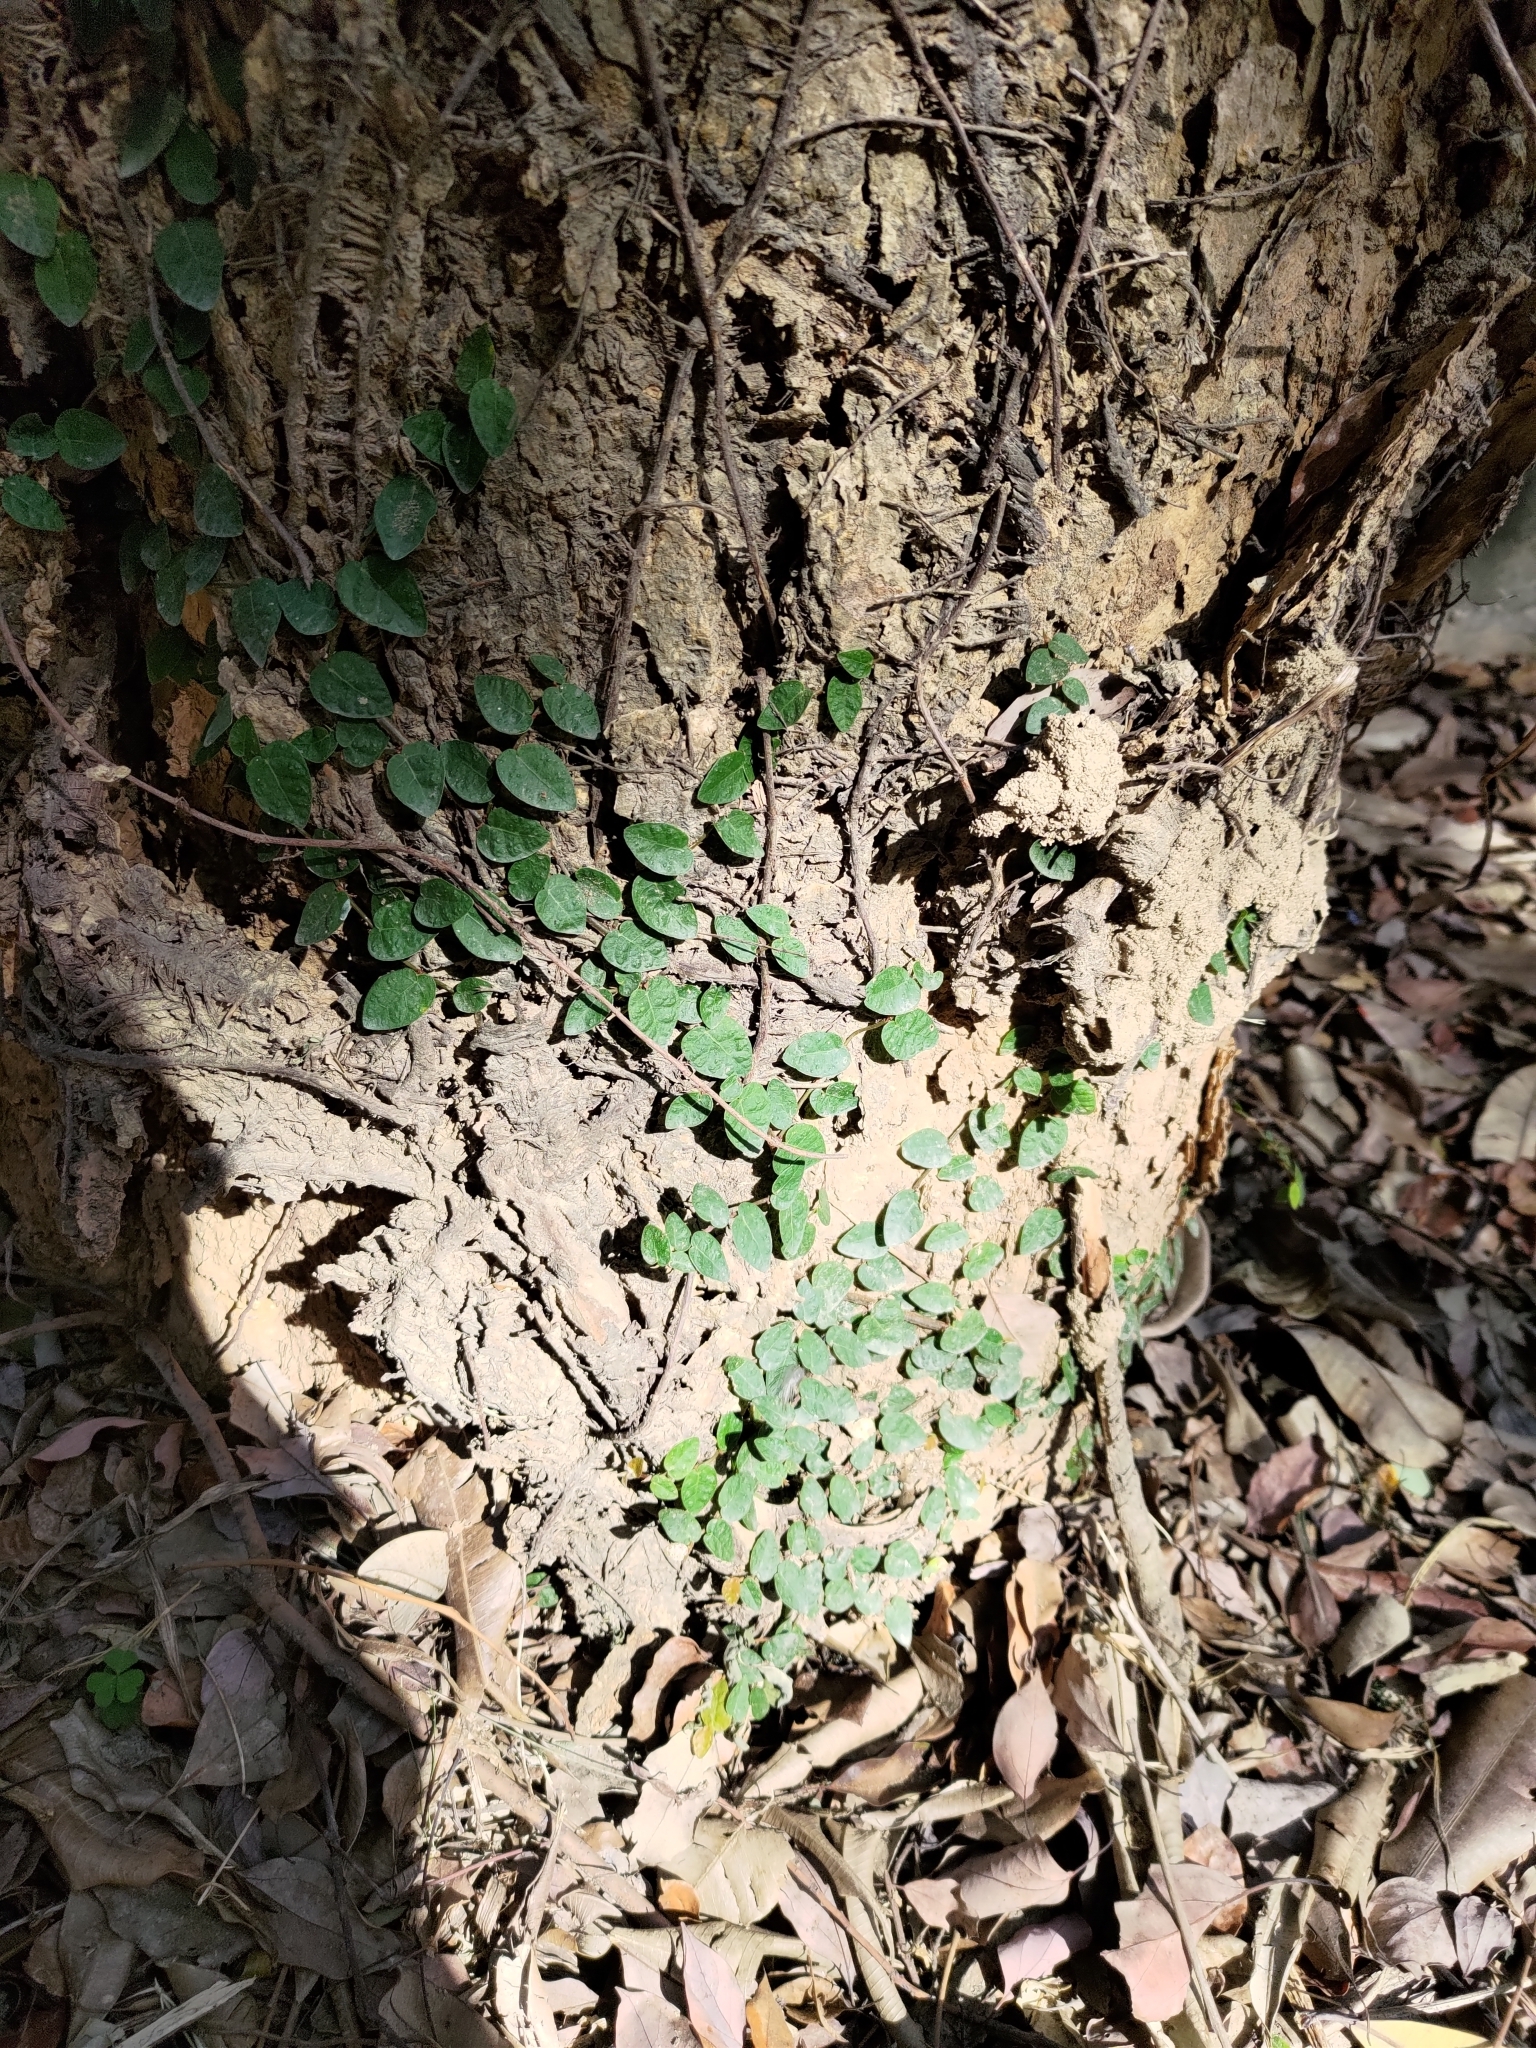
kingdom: Plantae
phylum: Tracheophyta
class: Magnoliopsida
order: Rosales
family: Moraceae
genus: Ficus
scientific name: Ficus pumila
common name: Climbingfig
